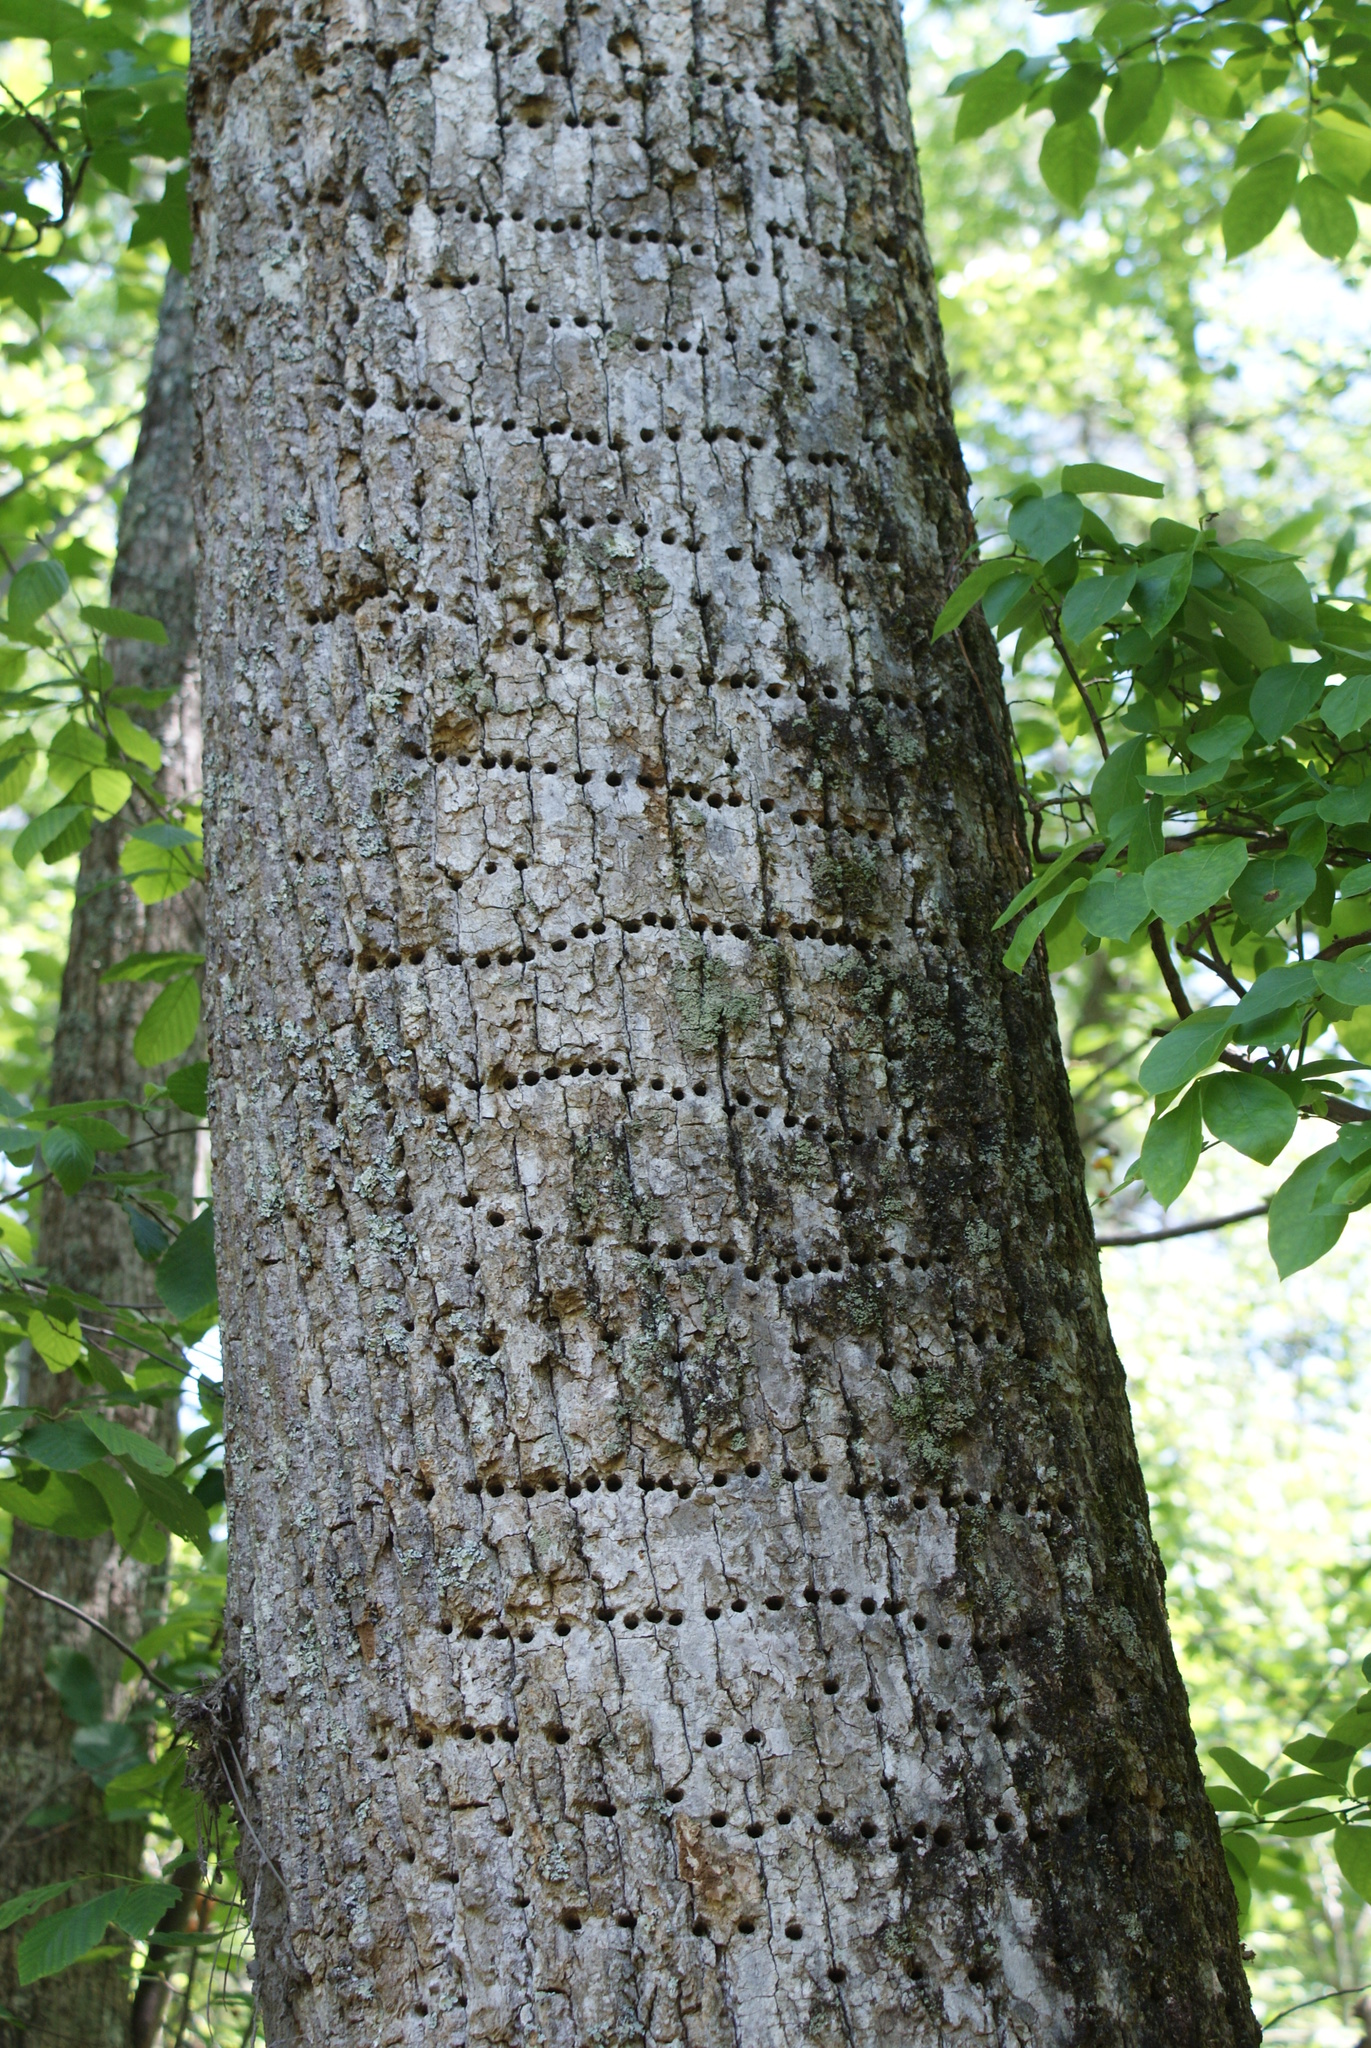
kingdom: Animalia
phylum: Chordata
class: Aves
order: Piciformes
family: Picidae
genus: Sphyrapicus
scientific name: Sphyrapicus varius
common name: Yellow-bellied sapsucker
